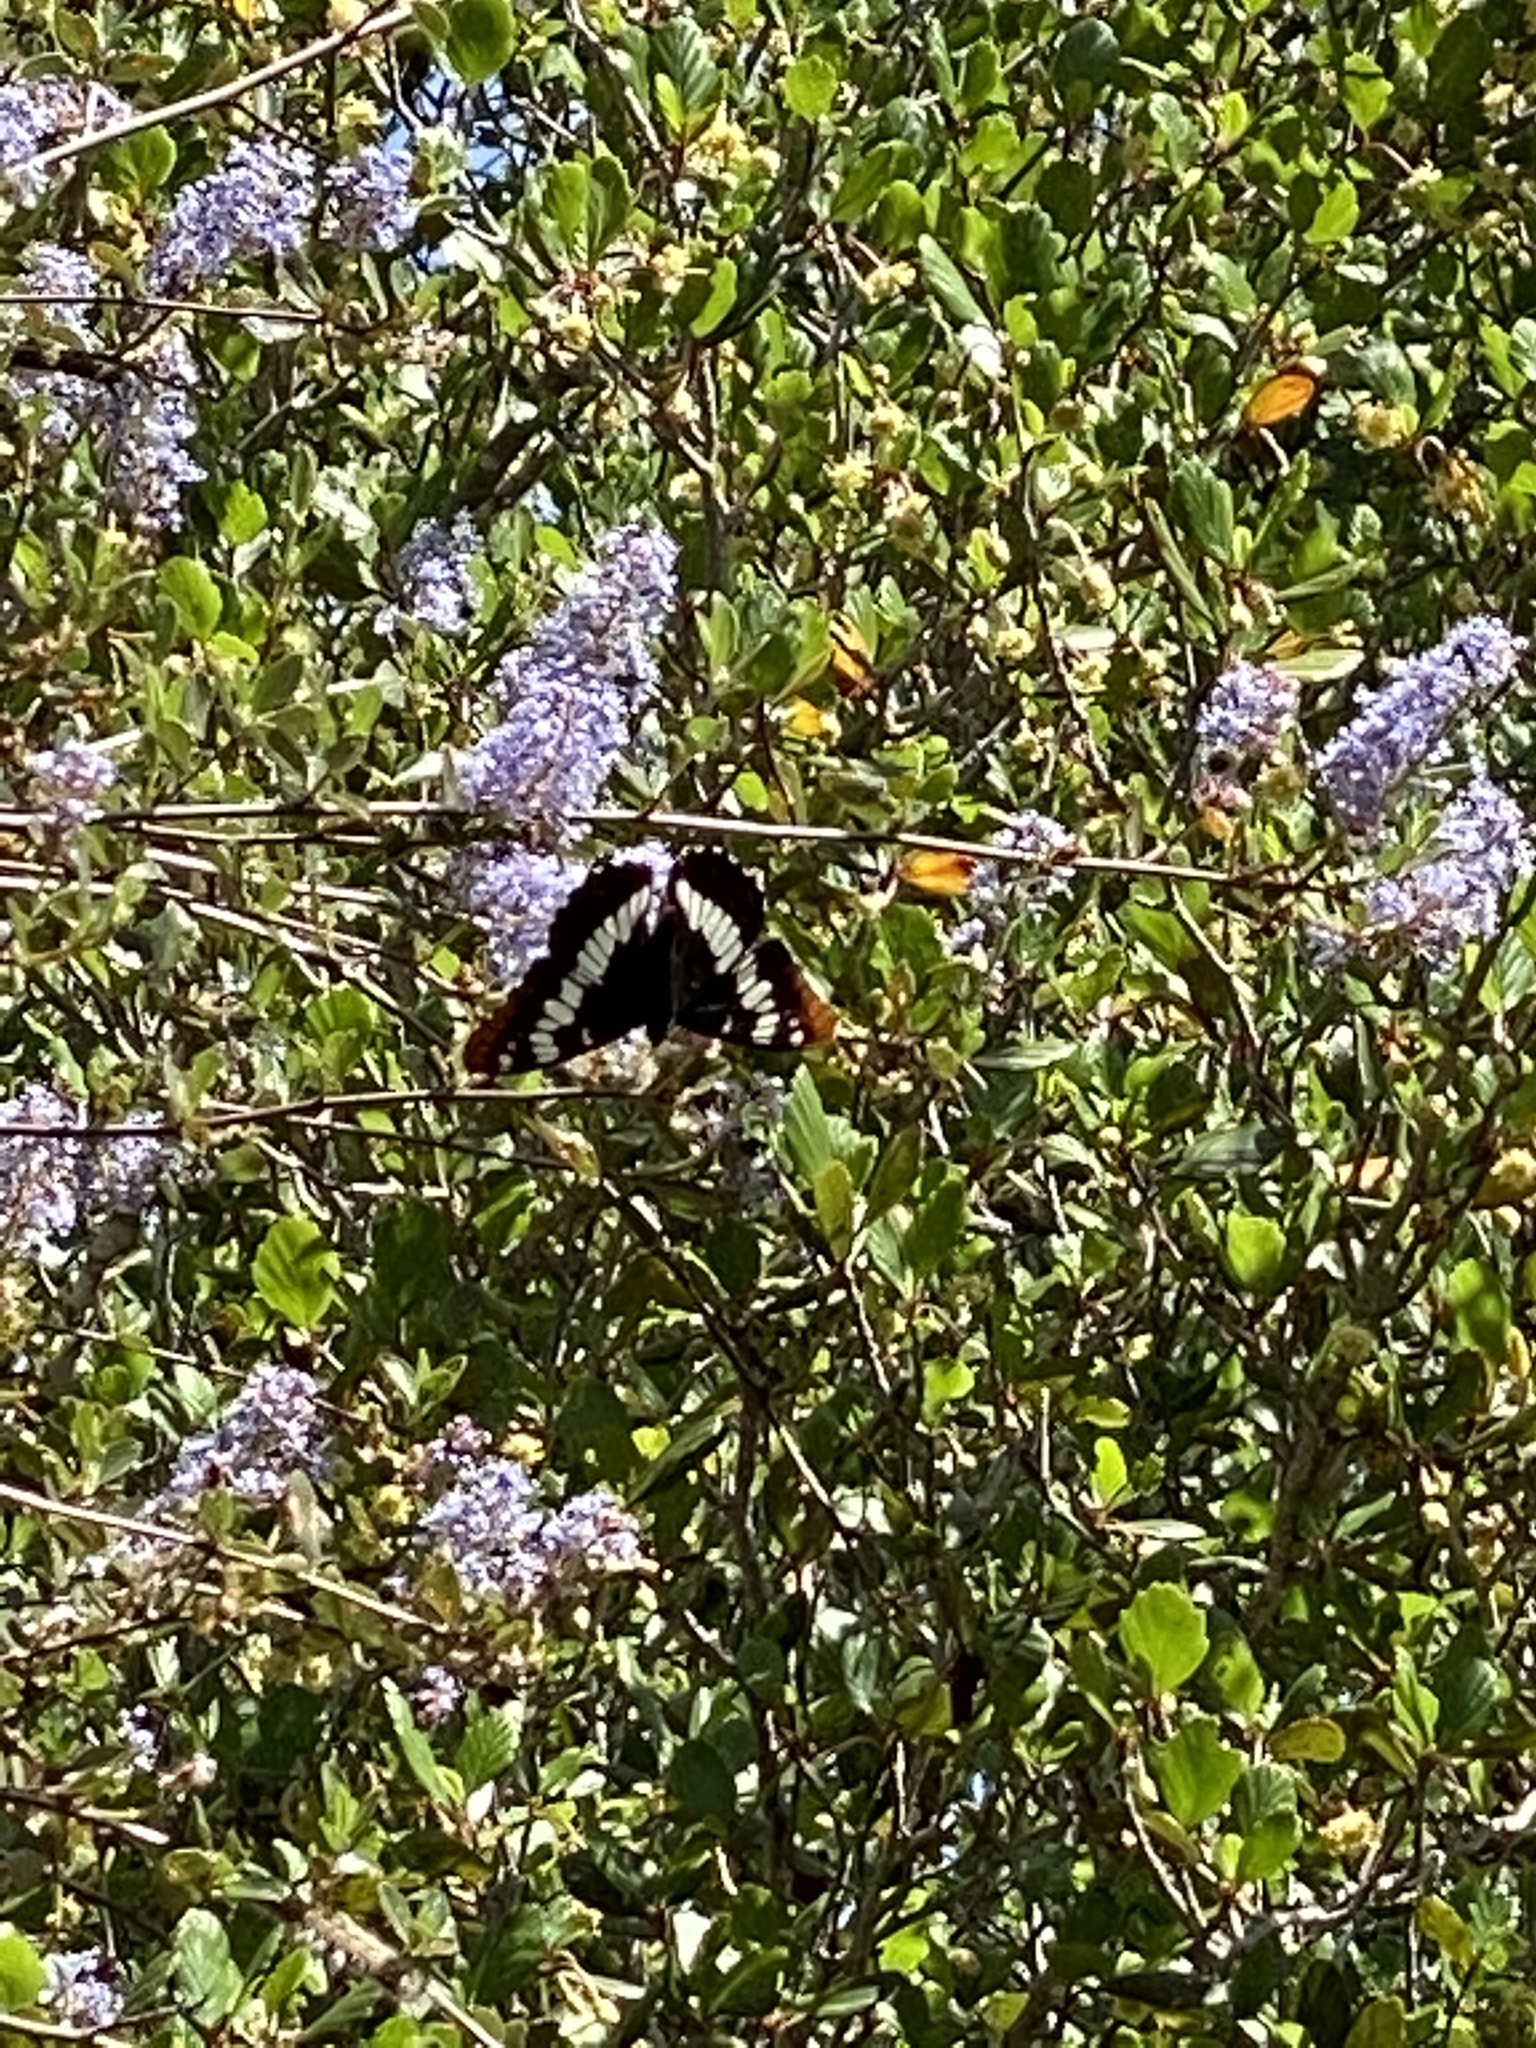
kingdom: Animalia
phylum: Arthropoda
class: Insecta
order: Lepidoptera
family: Nymphalidae
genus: Limenitis
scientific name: Limenitis lorquini
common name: Lorquin's admiral
